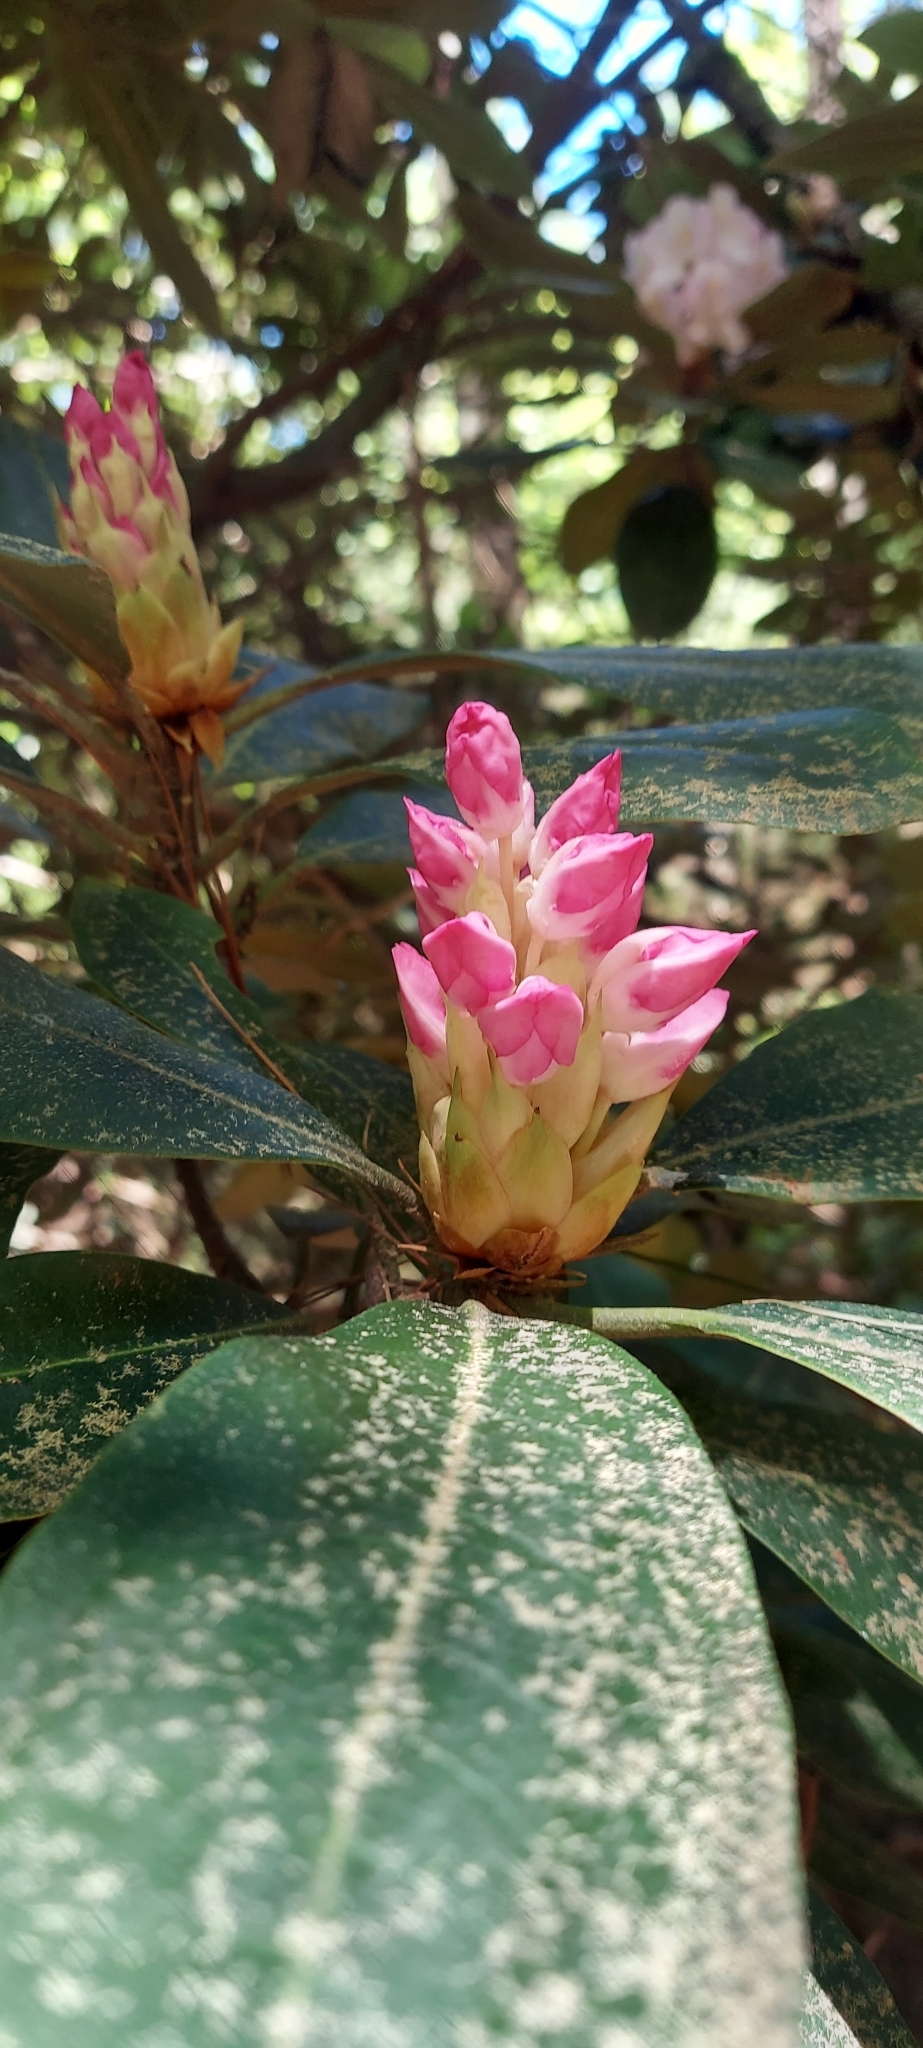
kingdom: Plantae
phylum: Tracheophyta
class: Magnoliopsida
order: Ericales
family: Ericaceae
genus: Rhododendron
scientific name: Rhododendron maximum
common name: Great rhododendron
